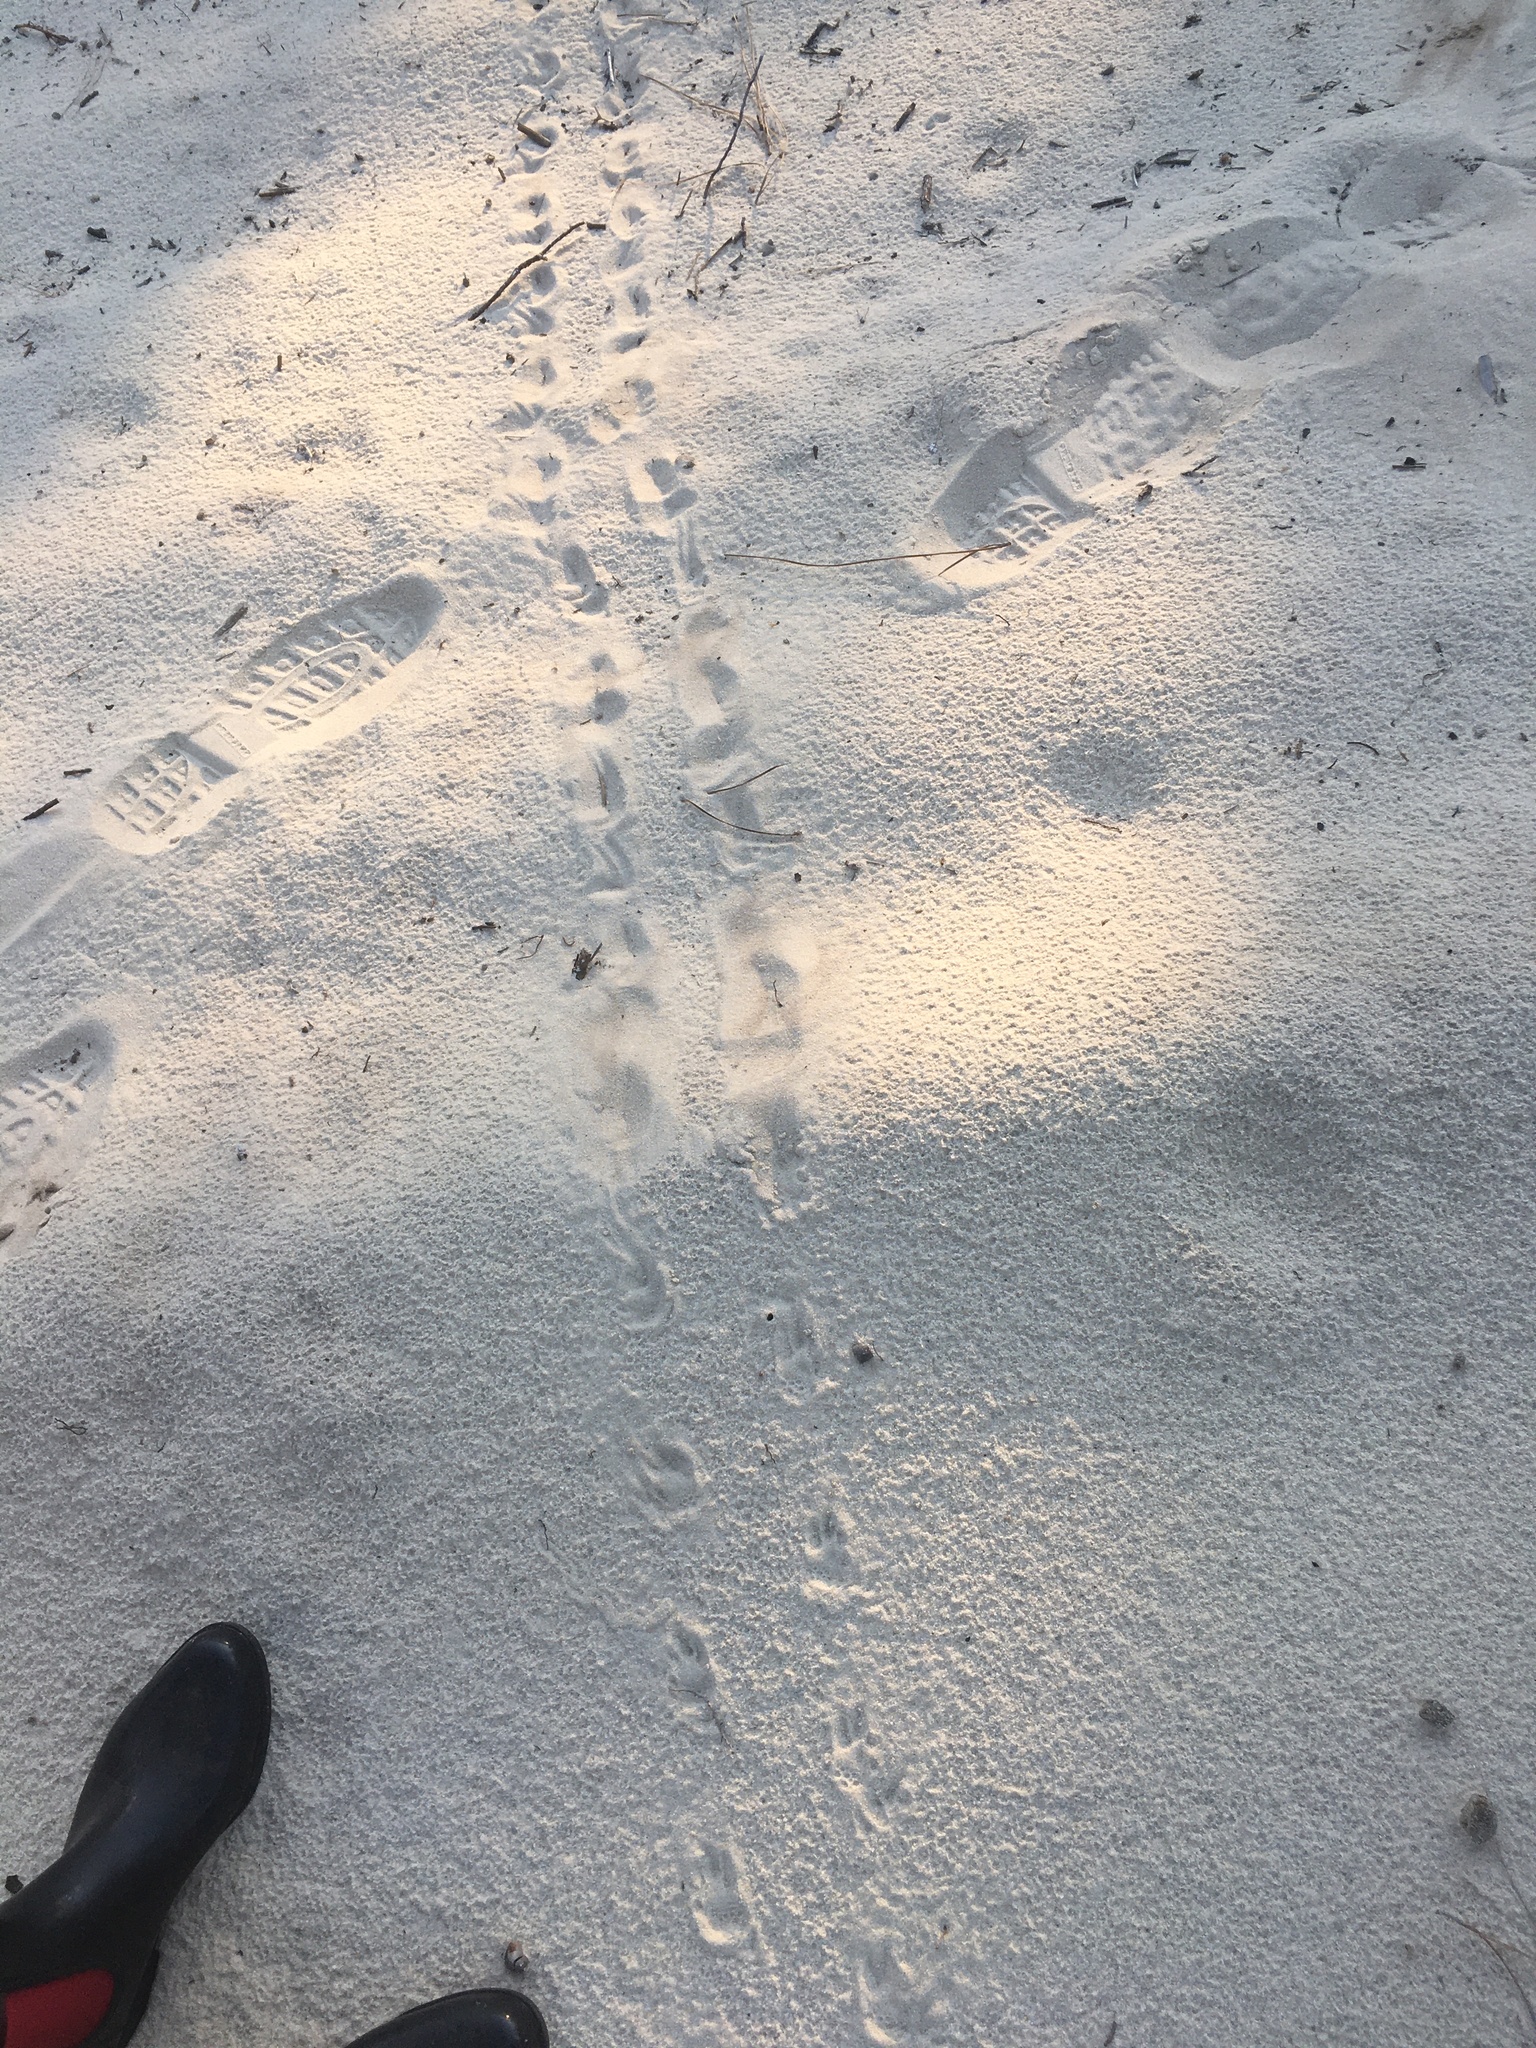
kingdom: Animalia
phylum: Chordata
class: Testudines
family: Testudinidae
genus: Gopherus
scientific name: Gopherus polyphemus
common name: Florida gopher tortoise
